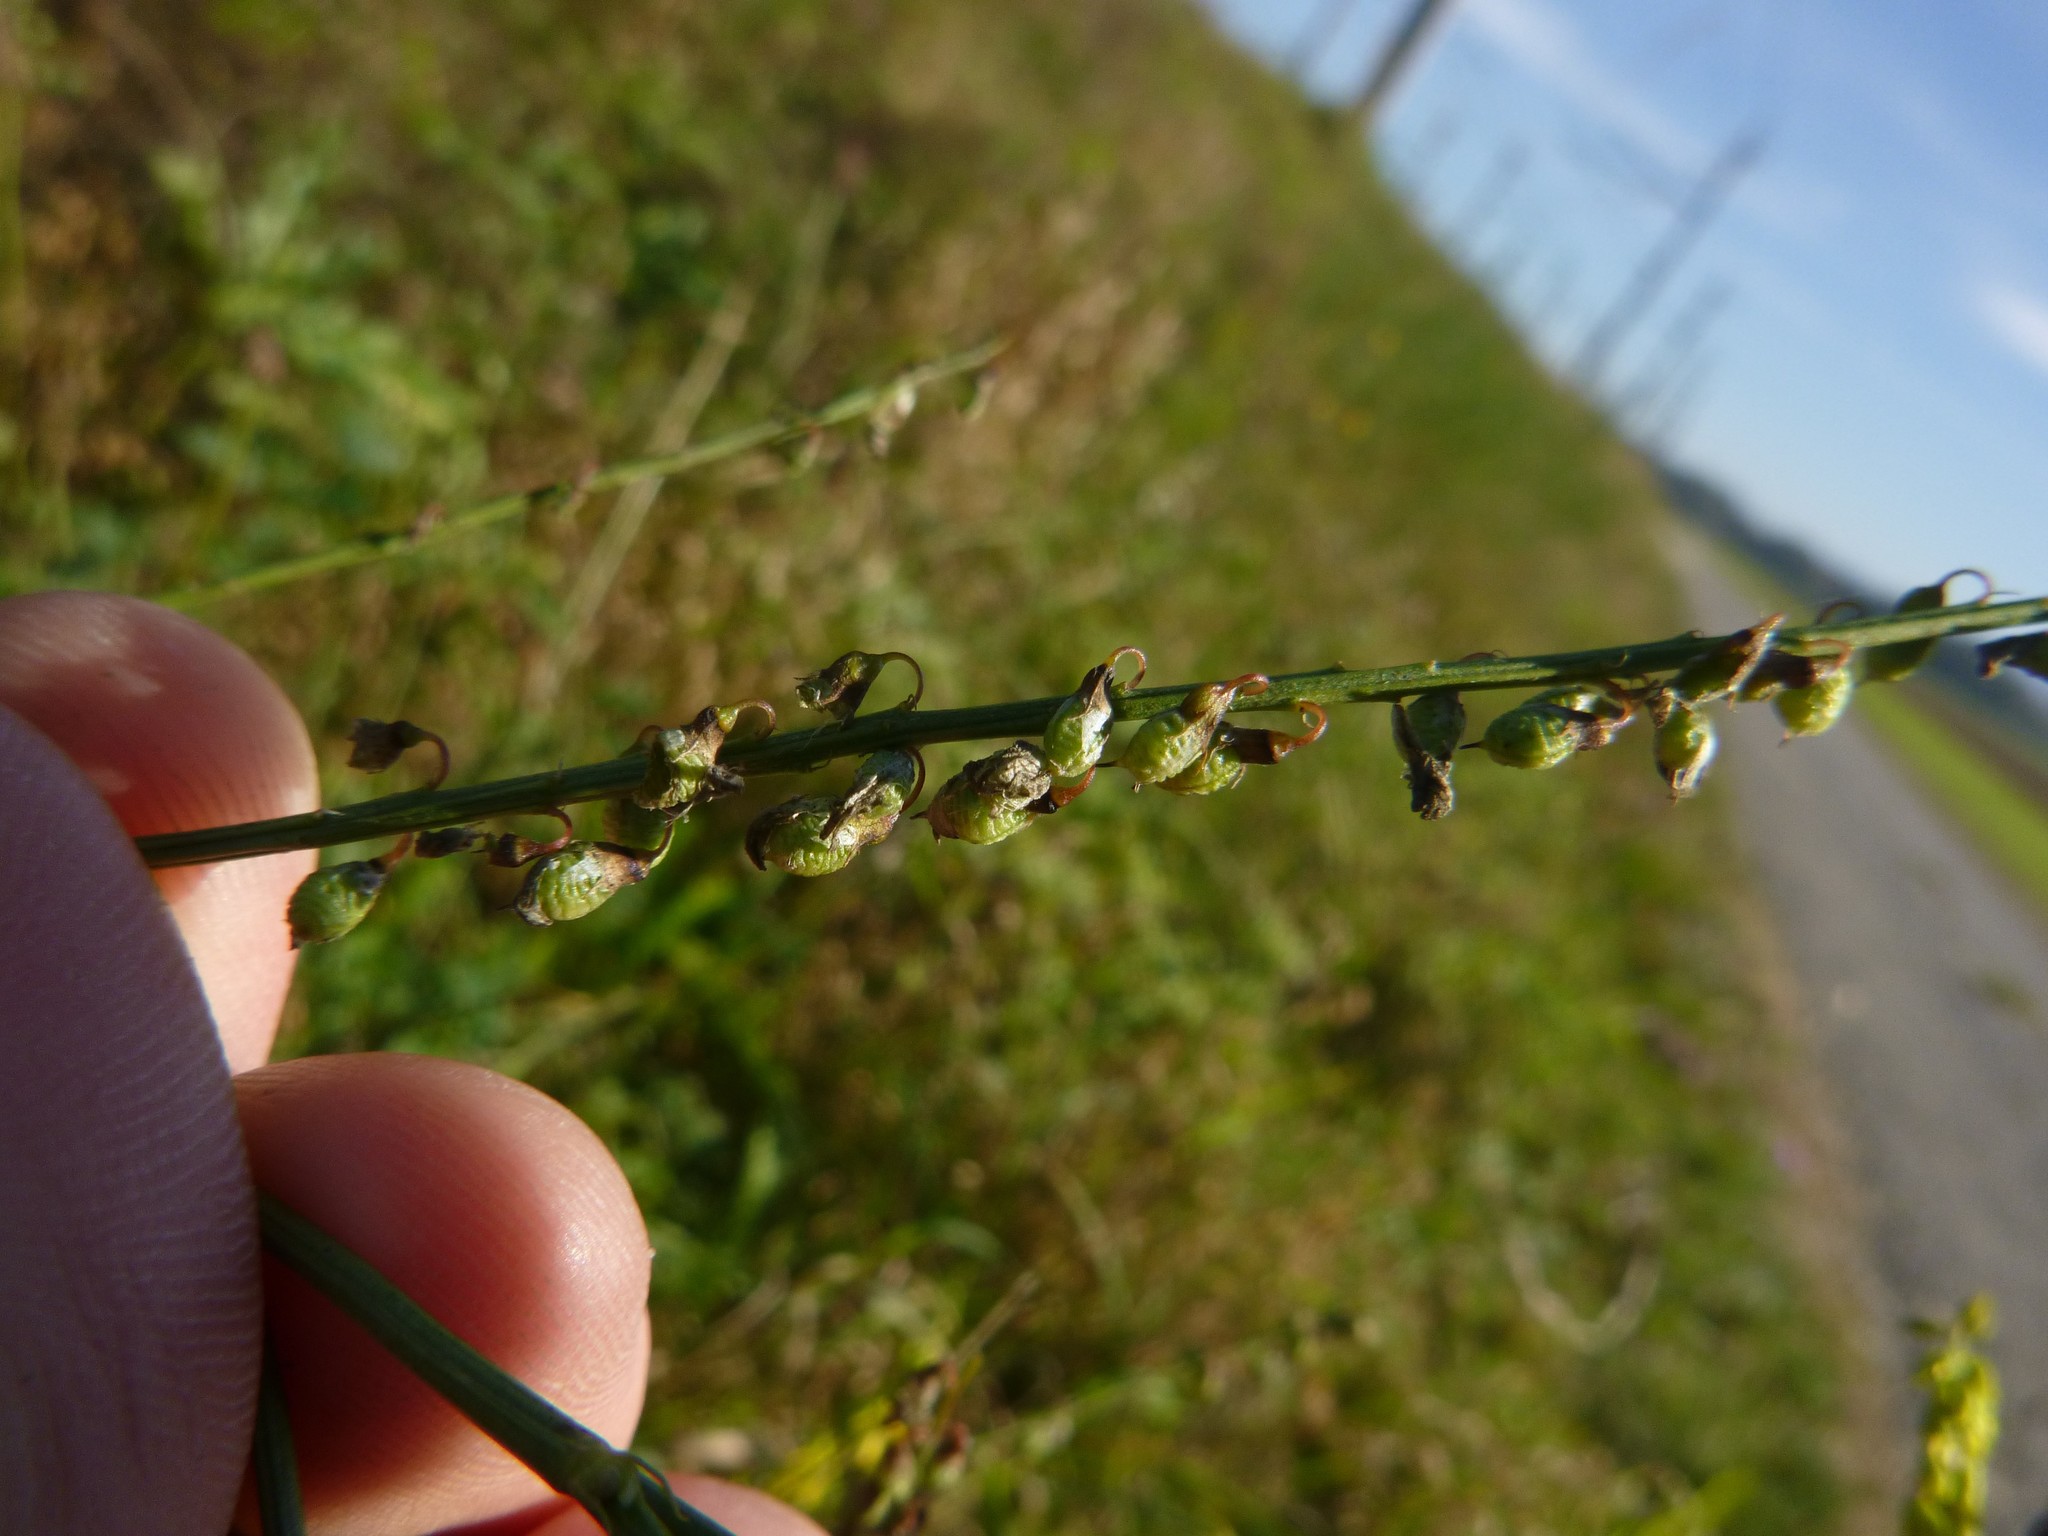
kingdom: Plantae
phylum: Tracheophyta
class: Magnoliopsida
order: Fabales
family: Fabaceae
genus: Melilotus
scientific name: Melilotus officinalis
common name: Sweetclover
